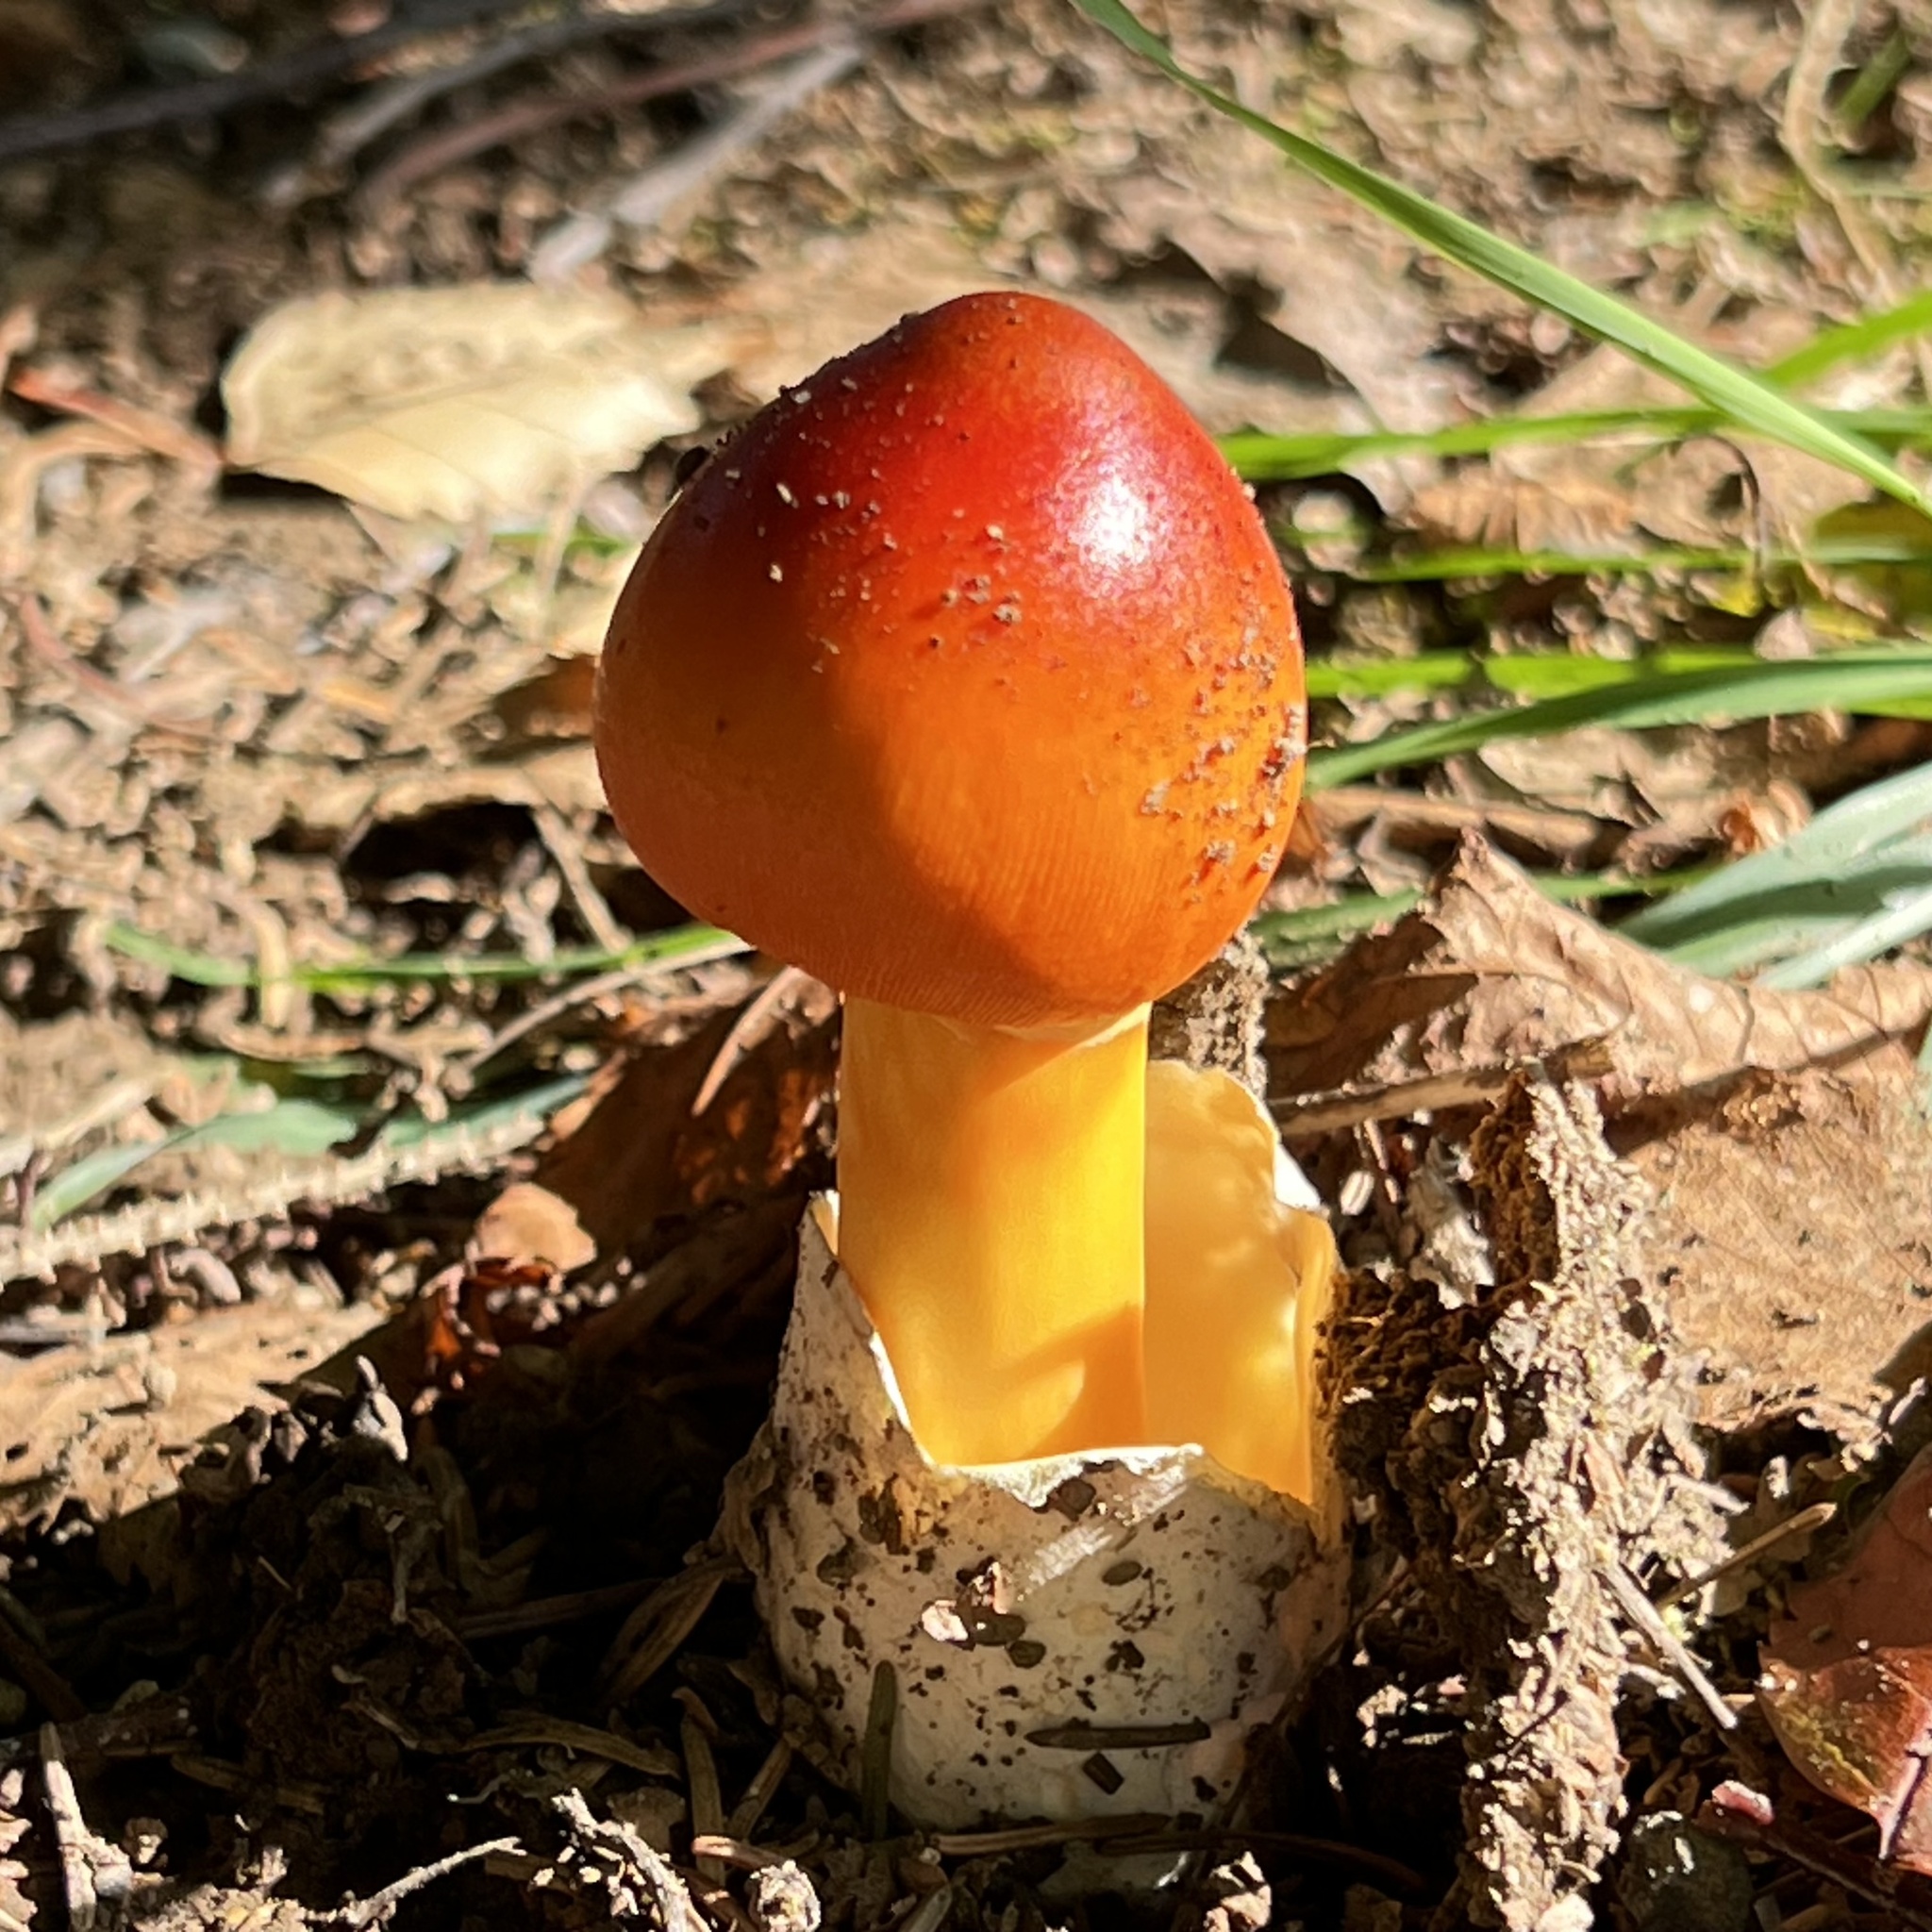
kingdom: Fungi
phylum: Basidiomycota
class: Agaricomycetes
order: Agaricales
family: Amanitaceae
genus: Amanita
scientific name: Amanita caesareoides
